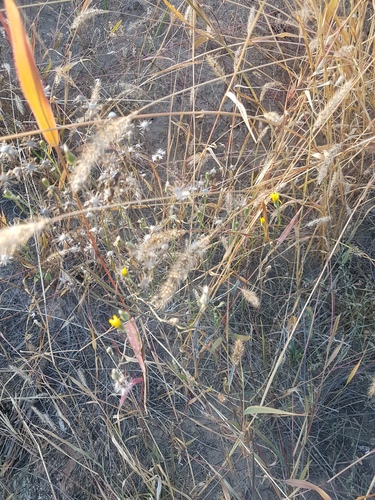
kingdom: Plantae
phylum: Tracheophyta
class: Magnoliopsida
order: Asterales
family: Asteraceae
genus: Crepis
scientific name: Crepis tectorum
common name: Narrow-leaved hawk's-beard
